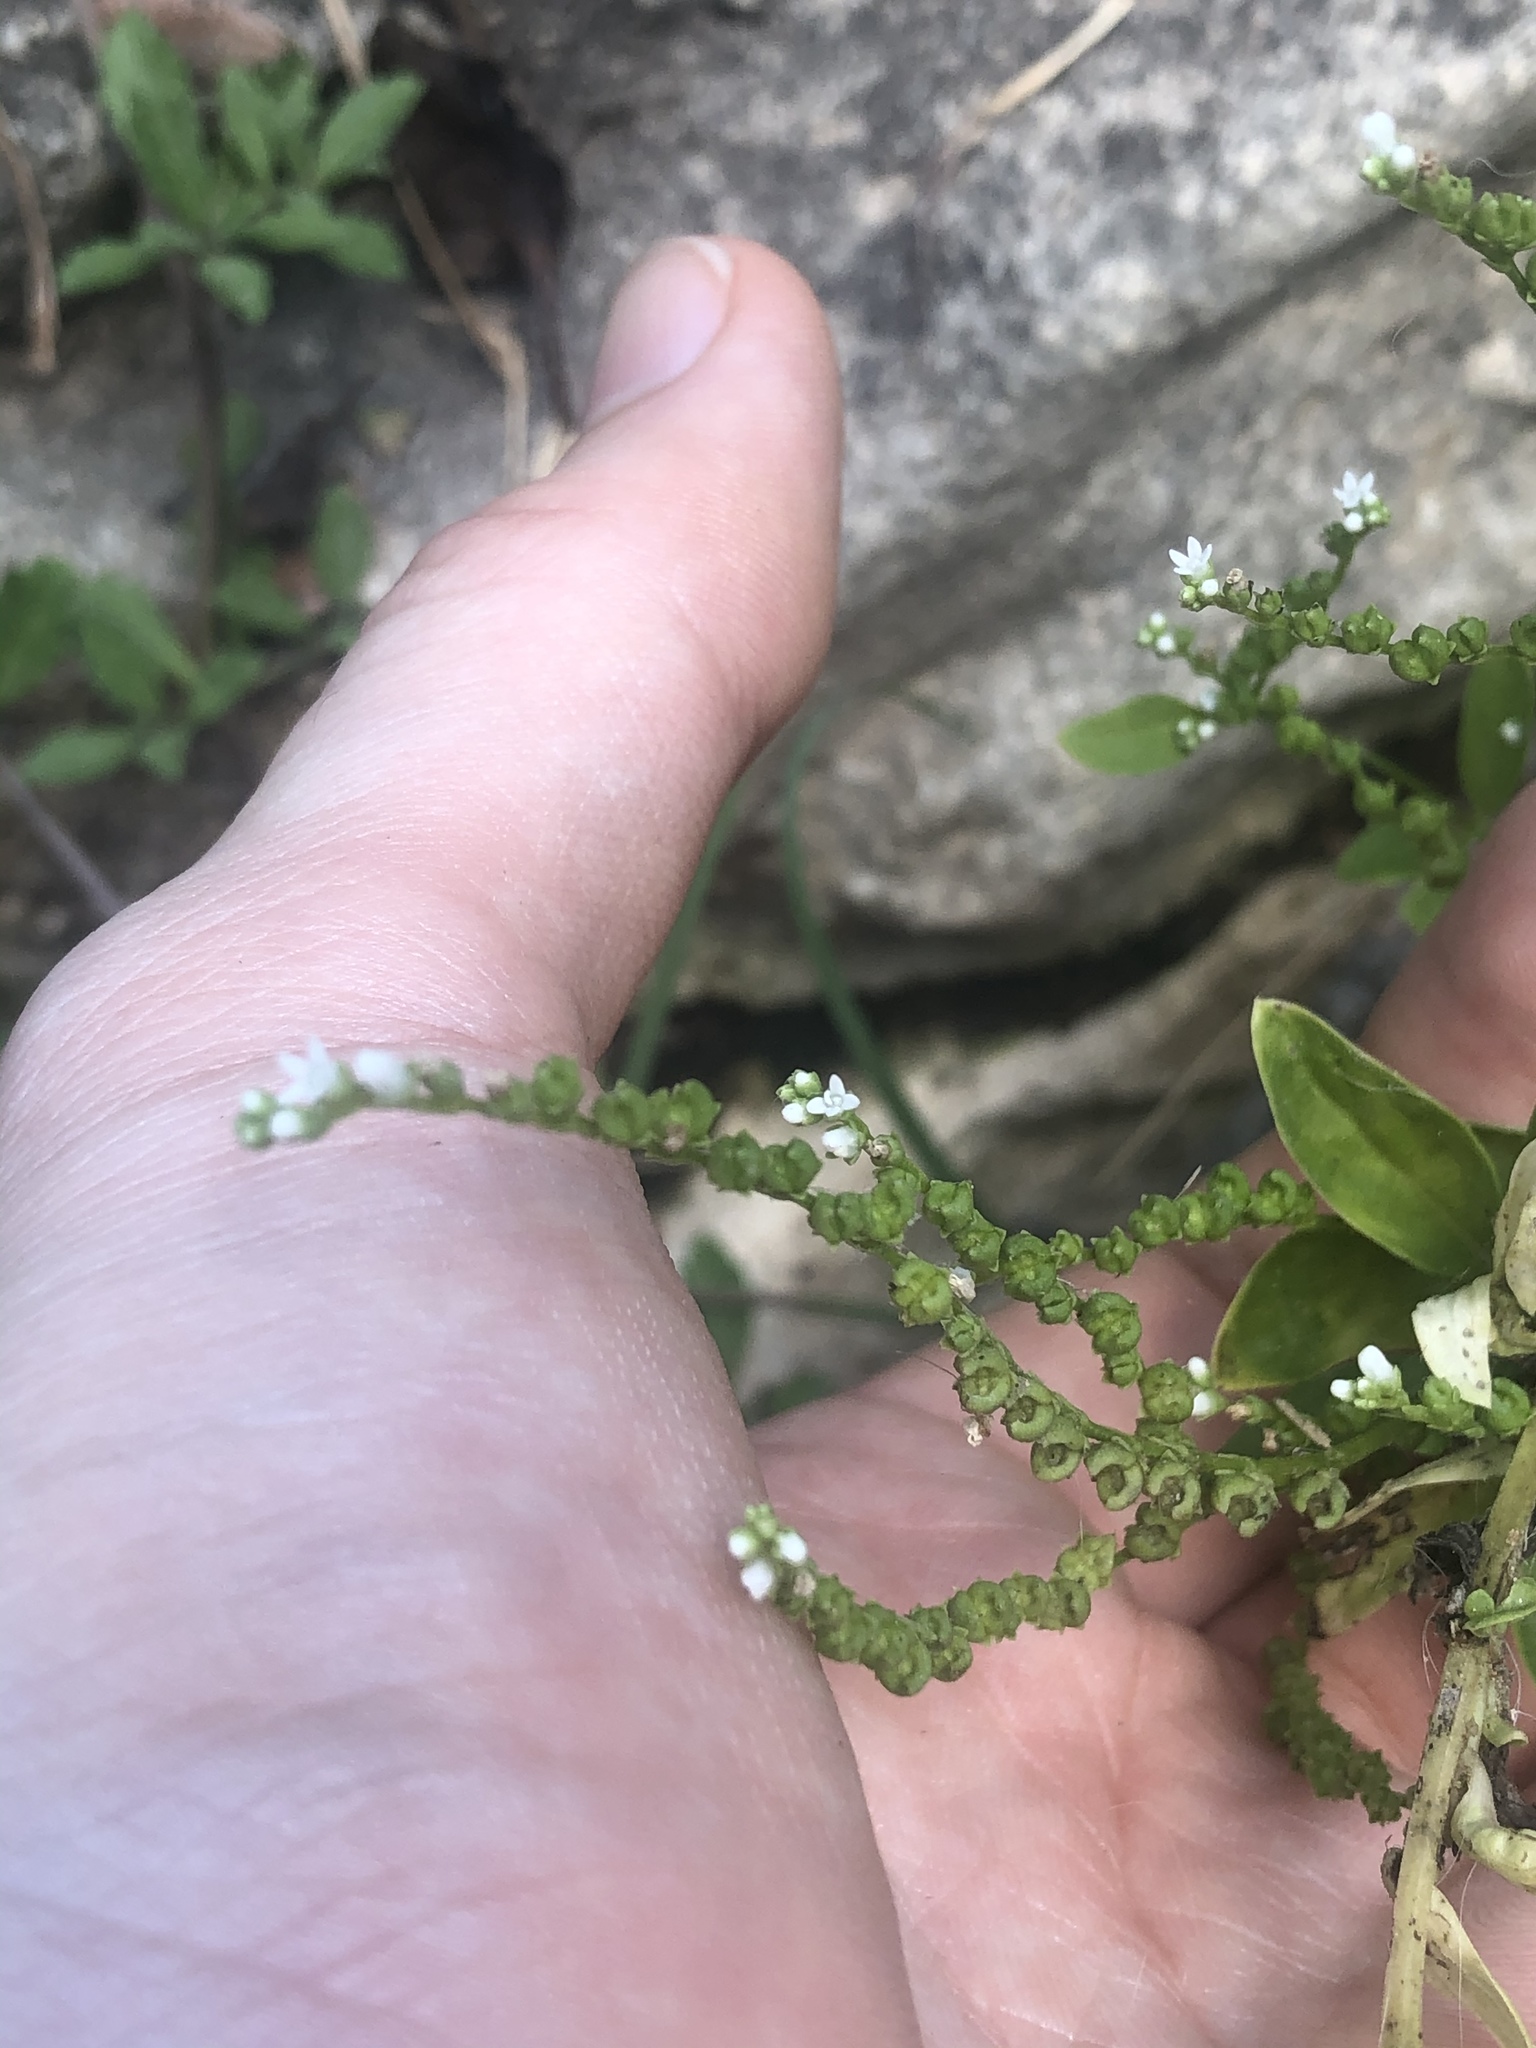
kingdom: Plantae
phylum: Tracheophyta
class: Magnoliopsida
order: Gentianales
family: Loganiaceae
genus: Mitreola
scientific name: Mitreola petiolata
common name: Lax hornpod
